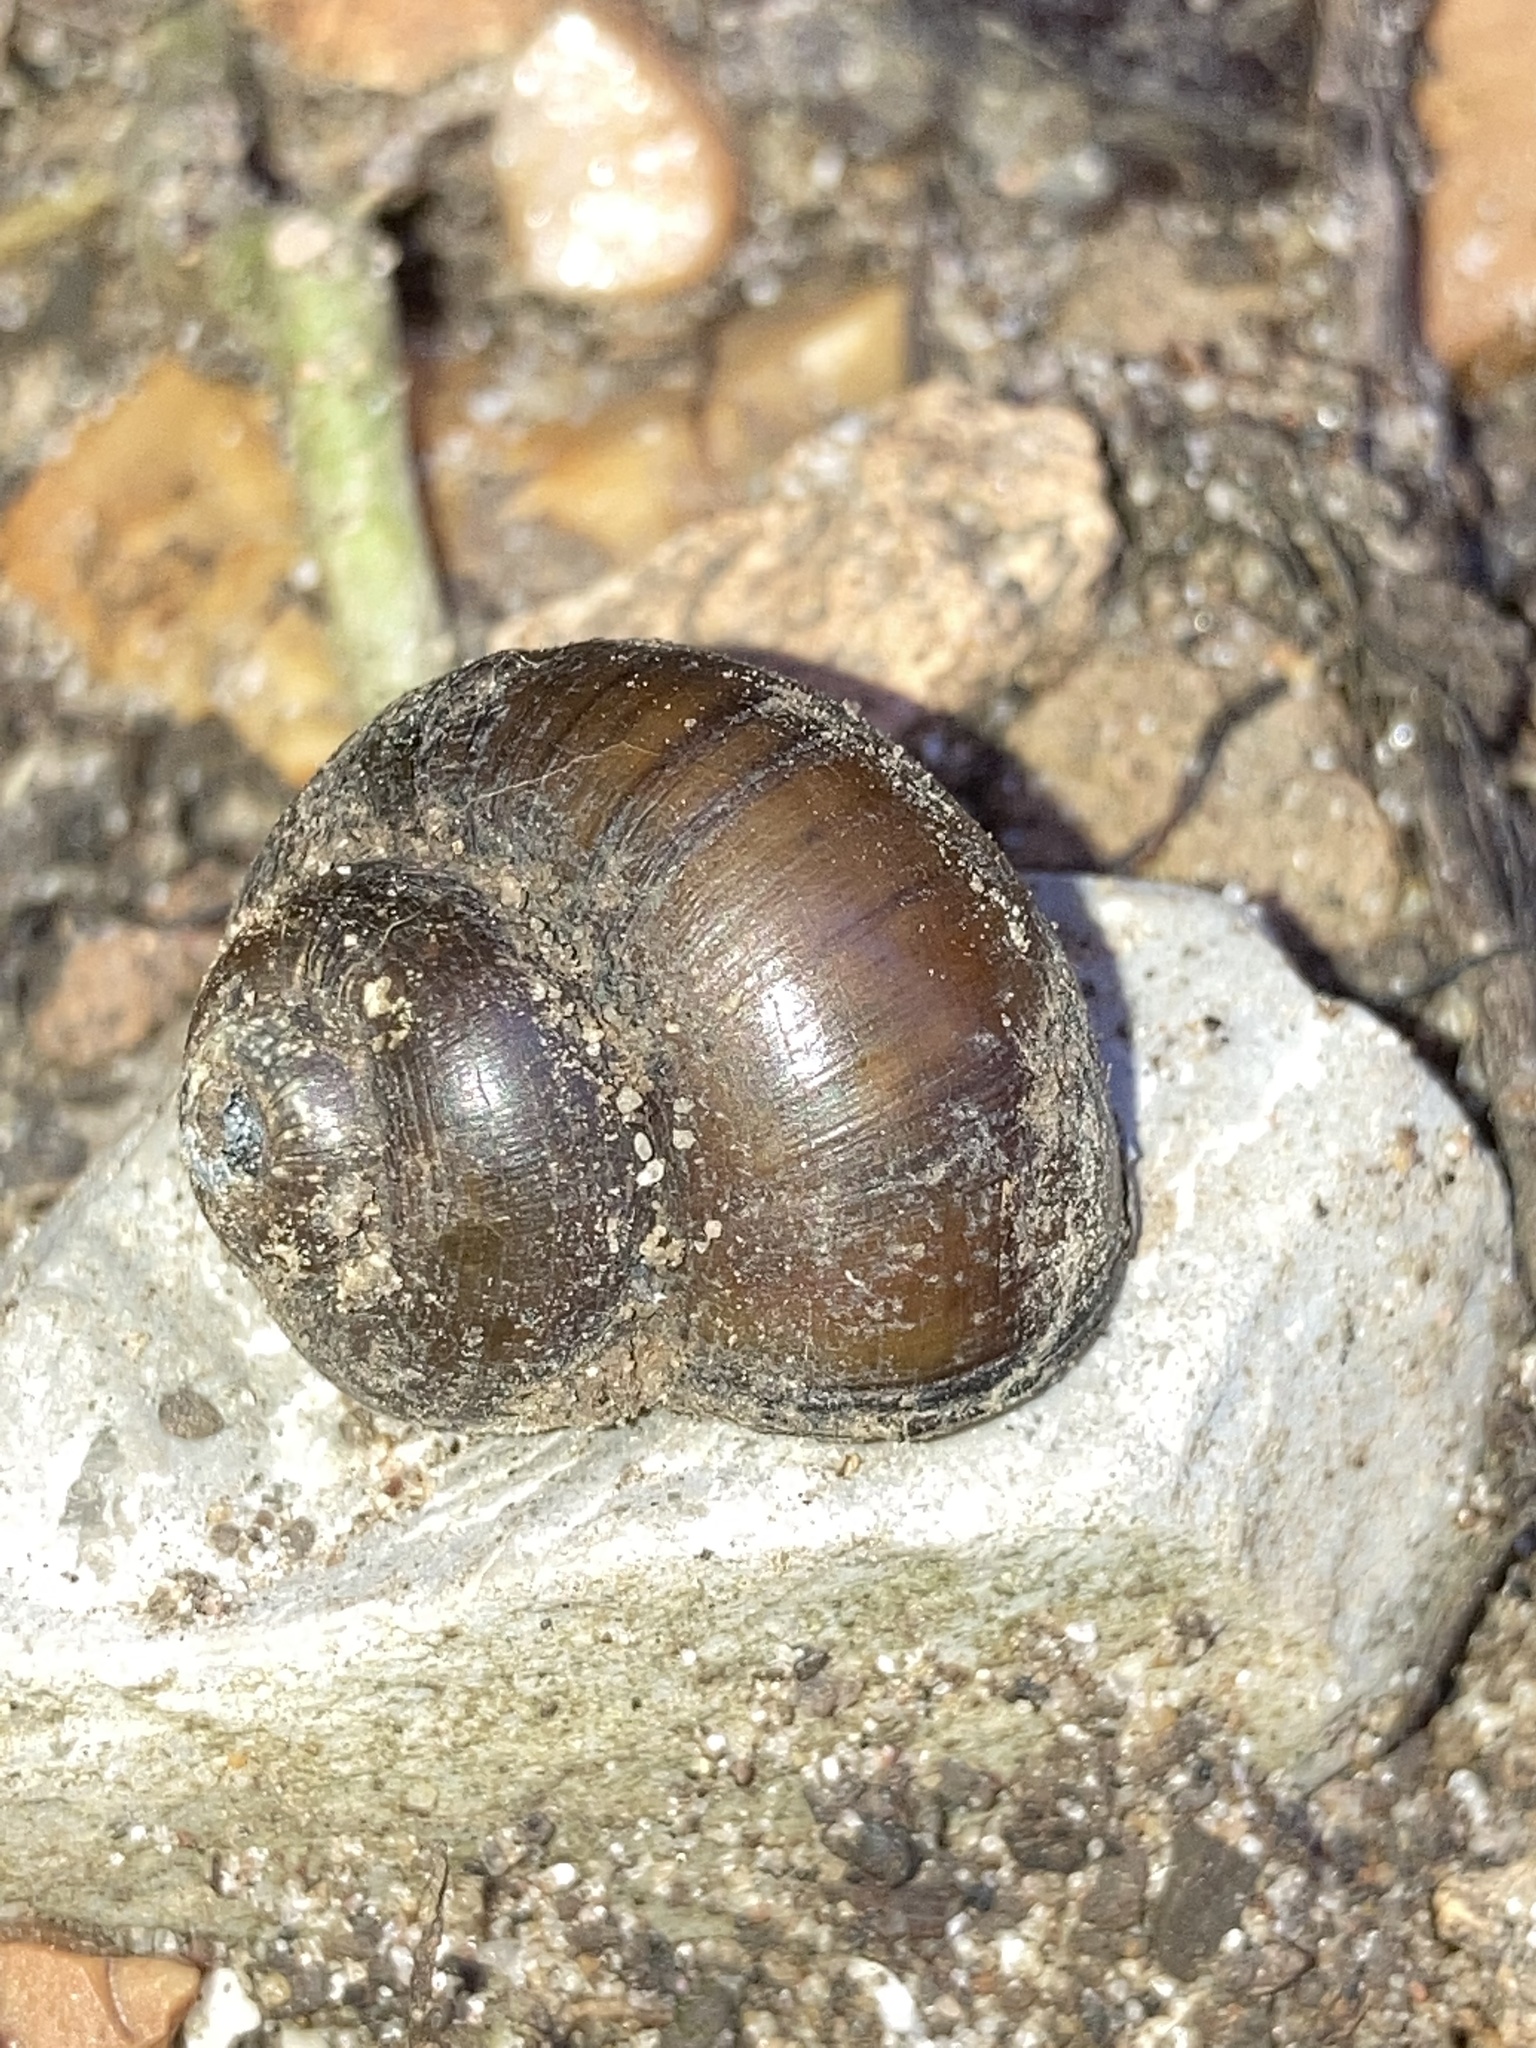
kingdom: Animalia
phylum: Mollusca
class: Gastropoda
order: Architaenioglossa
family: Viviparidae
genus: Cipangopaludina
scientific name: Cipangopaludina chinensis
